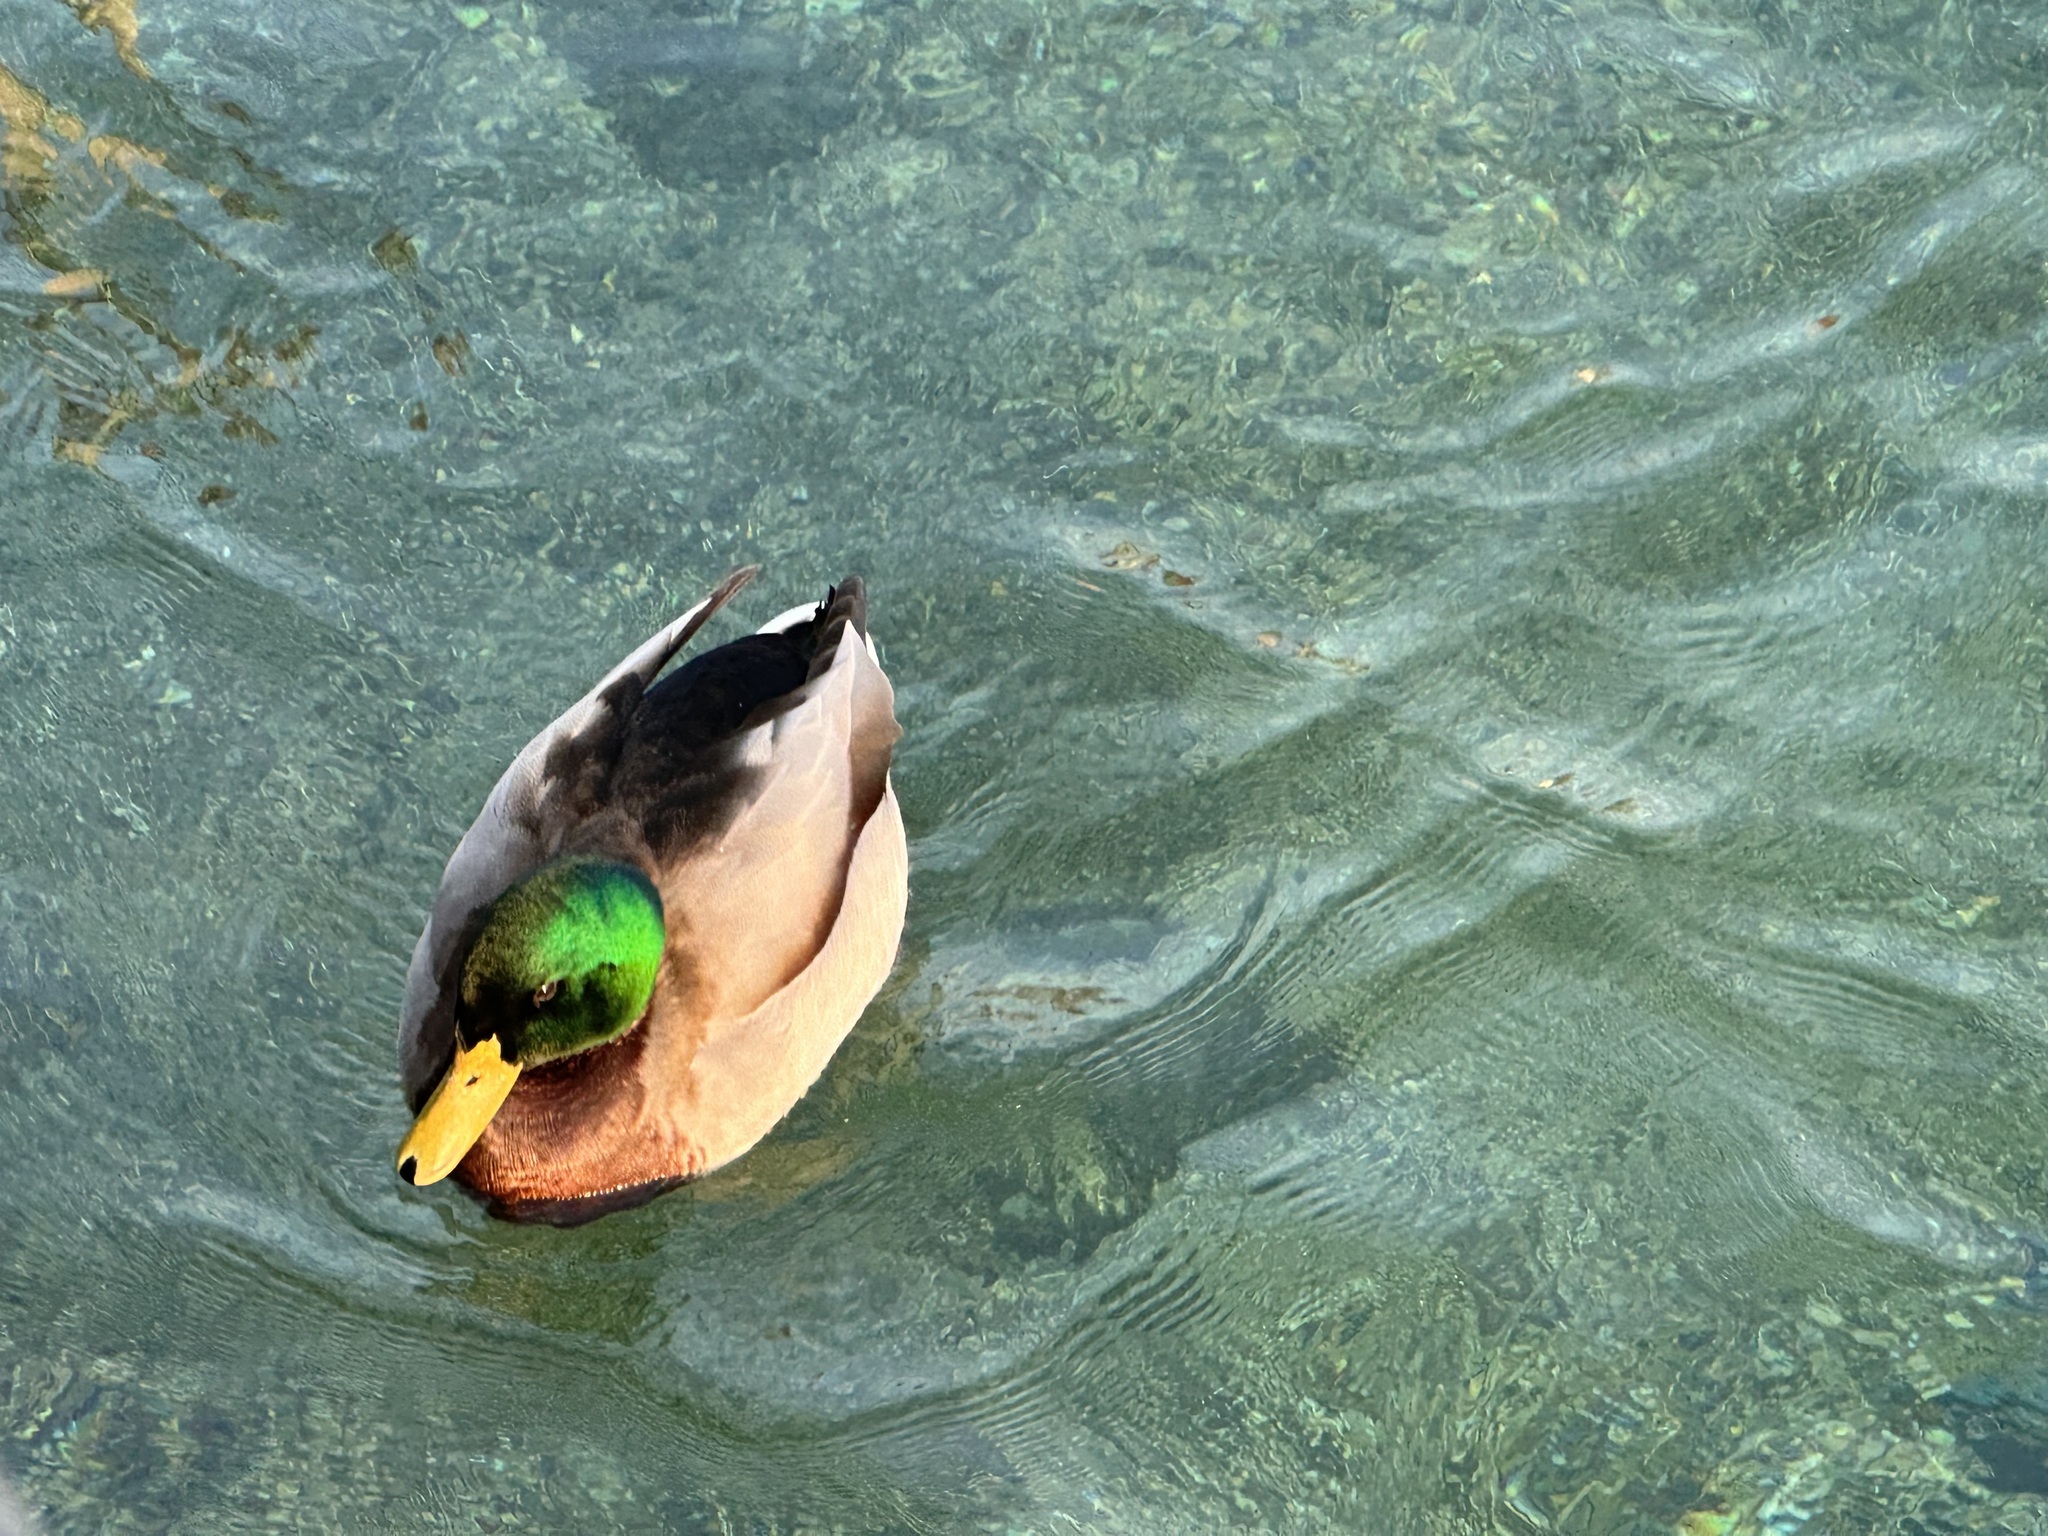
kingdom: Animalia
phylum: Chordata
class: Aves
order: Anseriformes
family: Anatidae
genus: Anas
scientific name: Anas platyrhynchos
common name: Mallard
